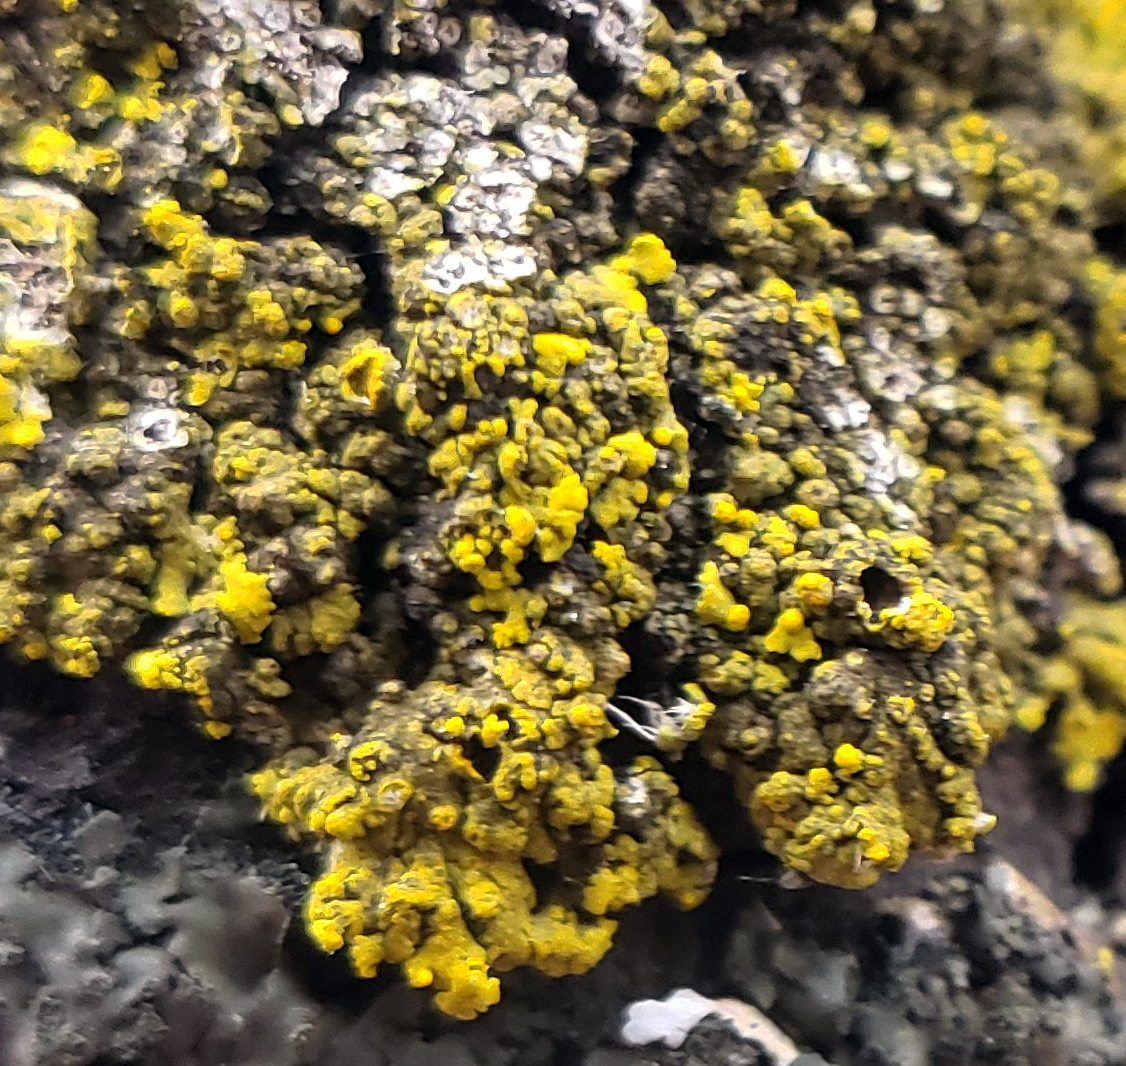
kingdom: Fungi
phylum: Ascomycota
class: Candelariomycetes
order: Candelariales
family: Candelariaceae
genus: Candelaria
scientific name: Candelaria fibrosa
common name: Fringed candleflame lichen
